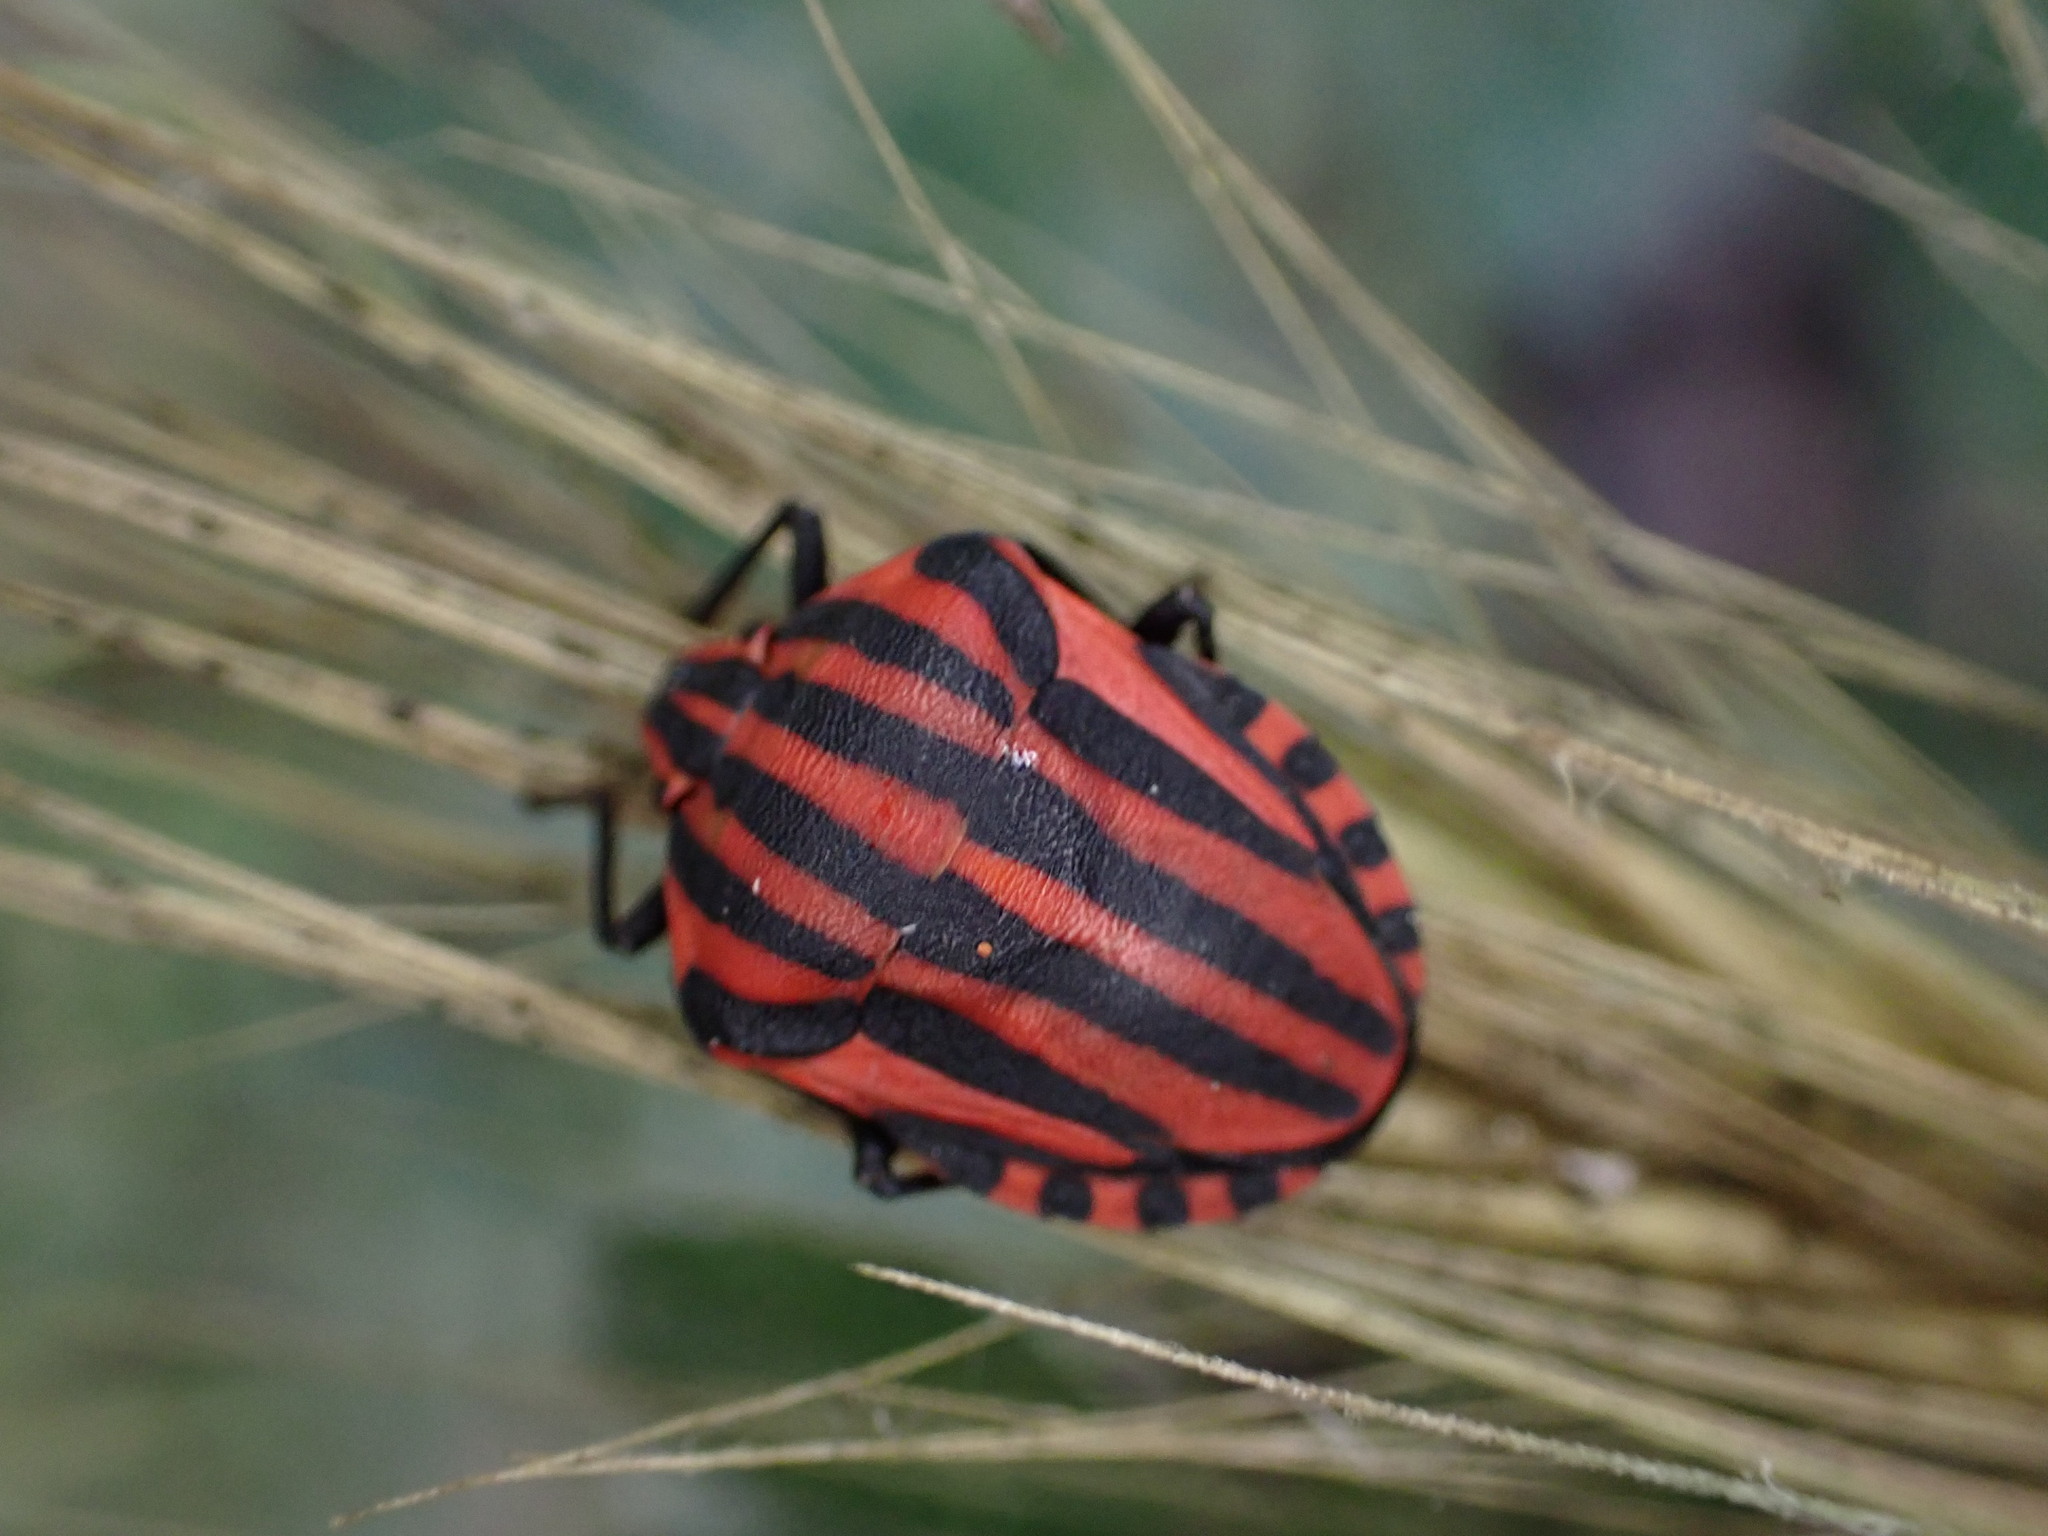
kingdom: Animalia
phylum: Arthropoda
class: Insecta
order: Hemiptera
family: Pentatomidae
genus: Graphosoma
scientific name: Graphosoma italicum
